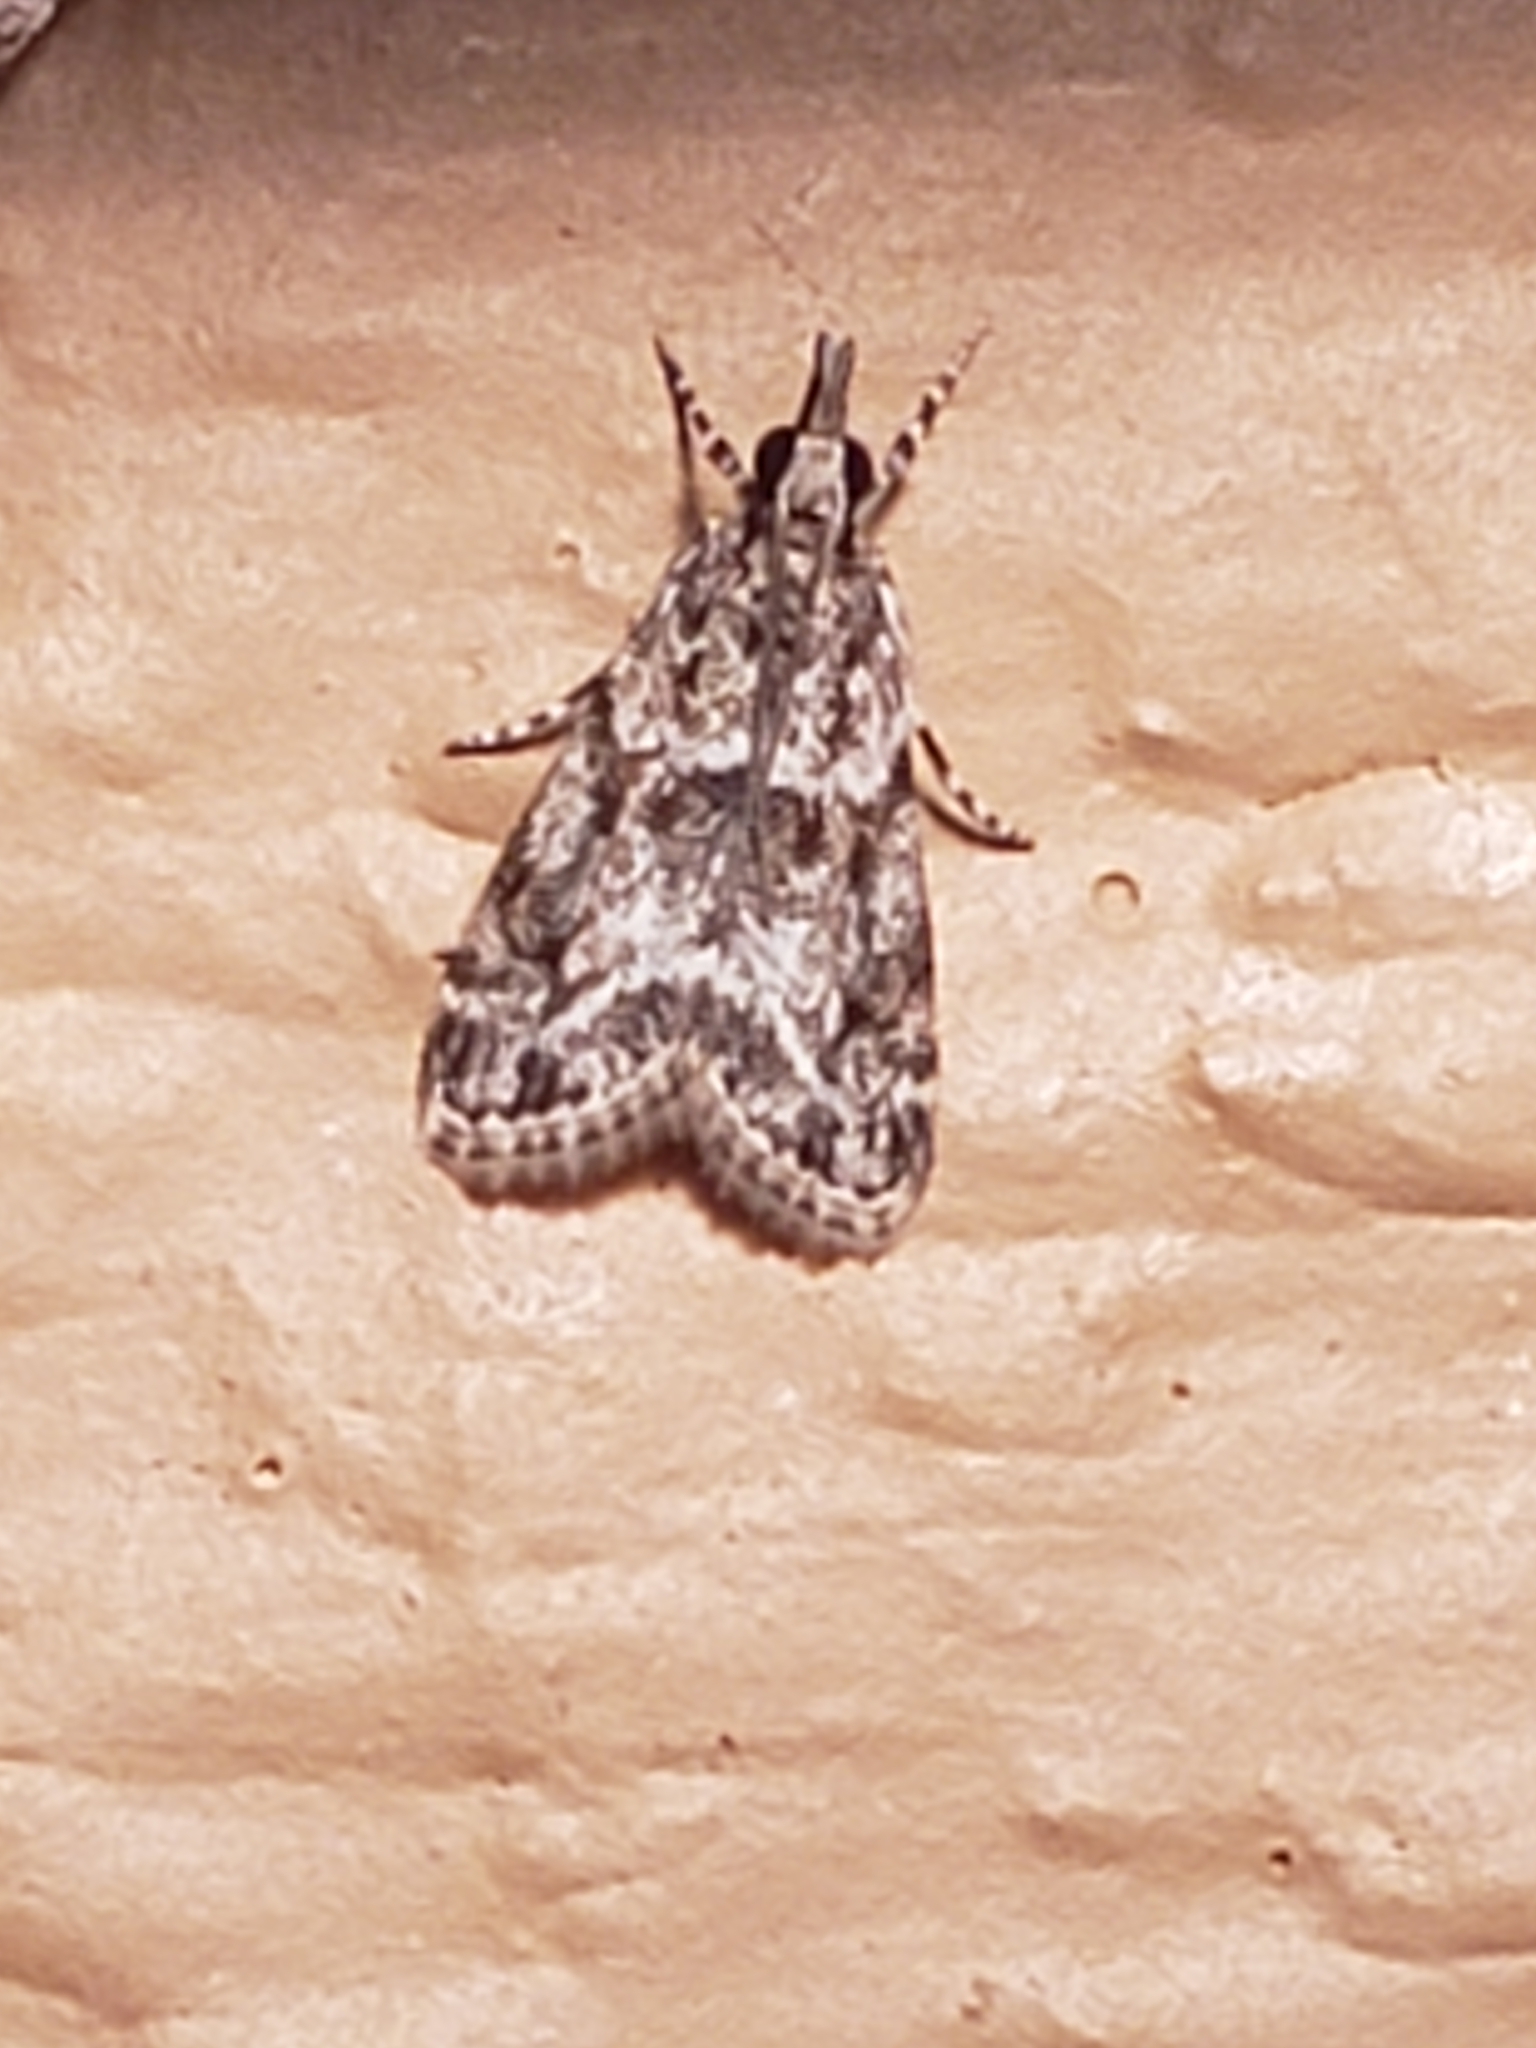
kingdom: Animalia
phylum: Arthropoda
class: Insecta
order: Lepidoptera
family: Crambidae
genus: Eudonia
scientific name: Eudonia heterosalis
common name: Mcdunnough's eudonia
